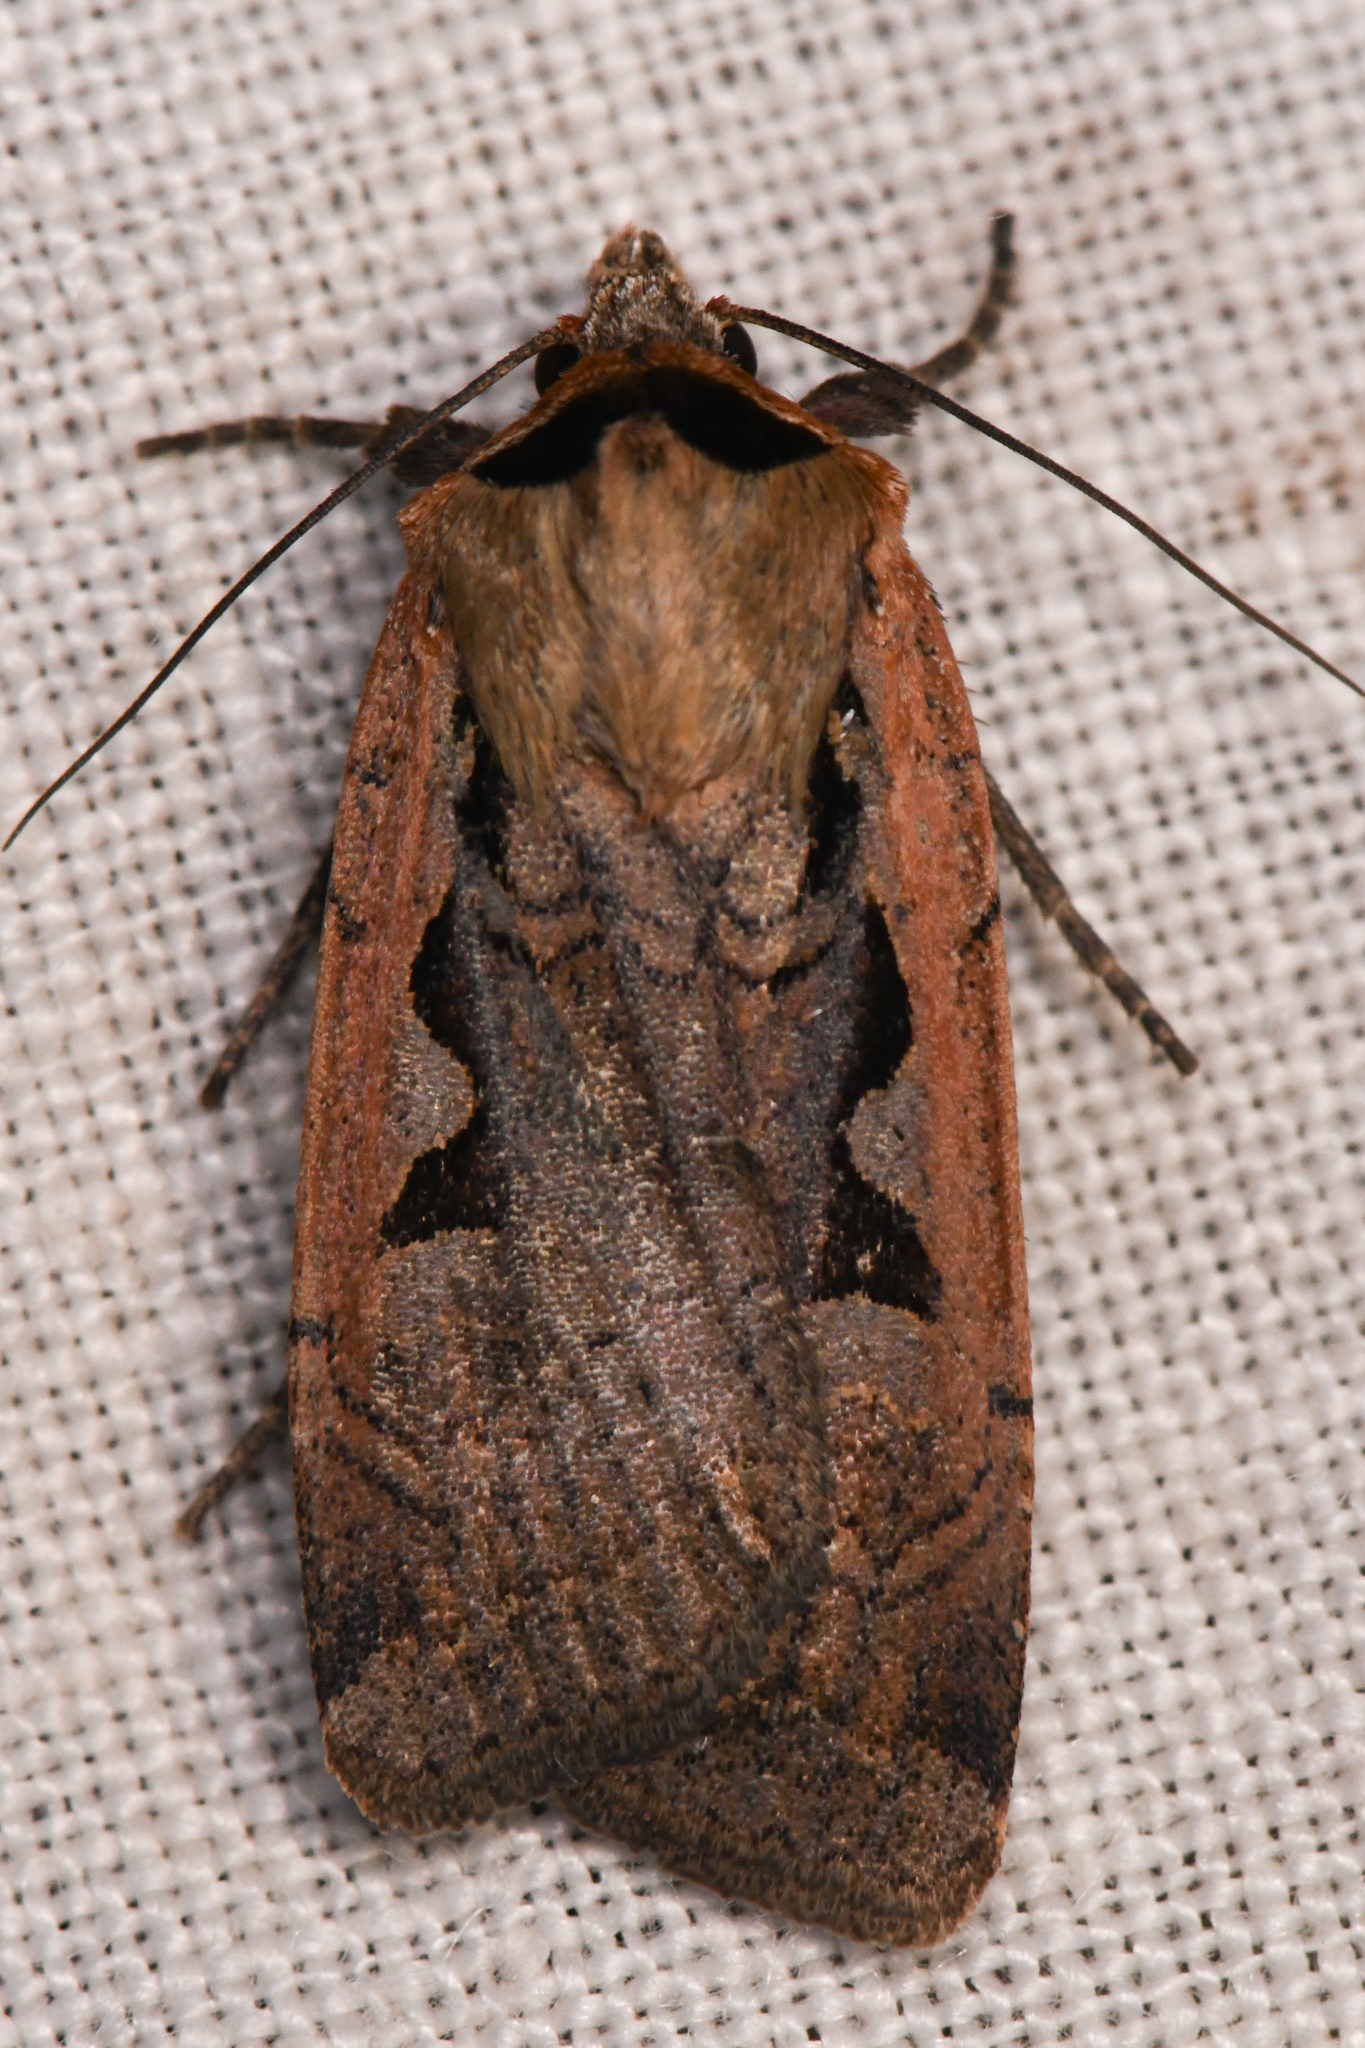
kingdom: Animalia
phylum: Arthropoda
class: Insecta
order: Lepidoptera
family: Noctuidae
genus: Parabagrotis
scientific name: Parabagrotis formalis
